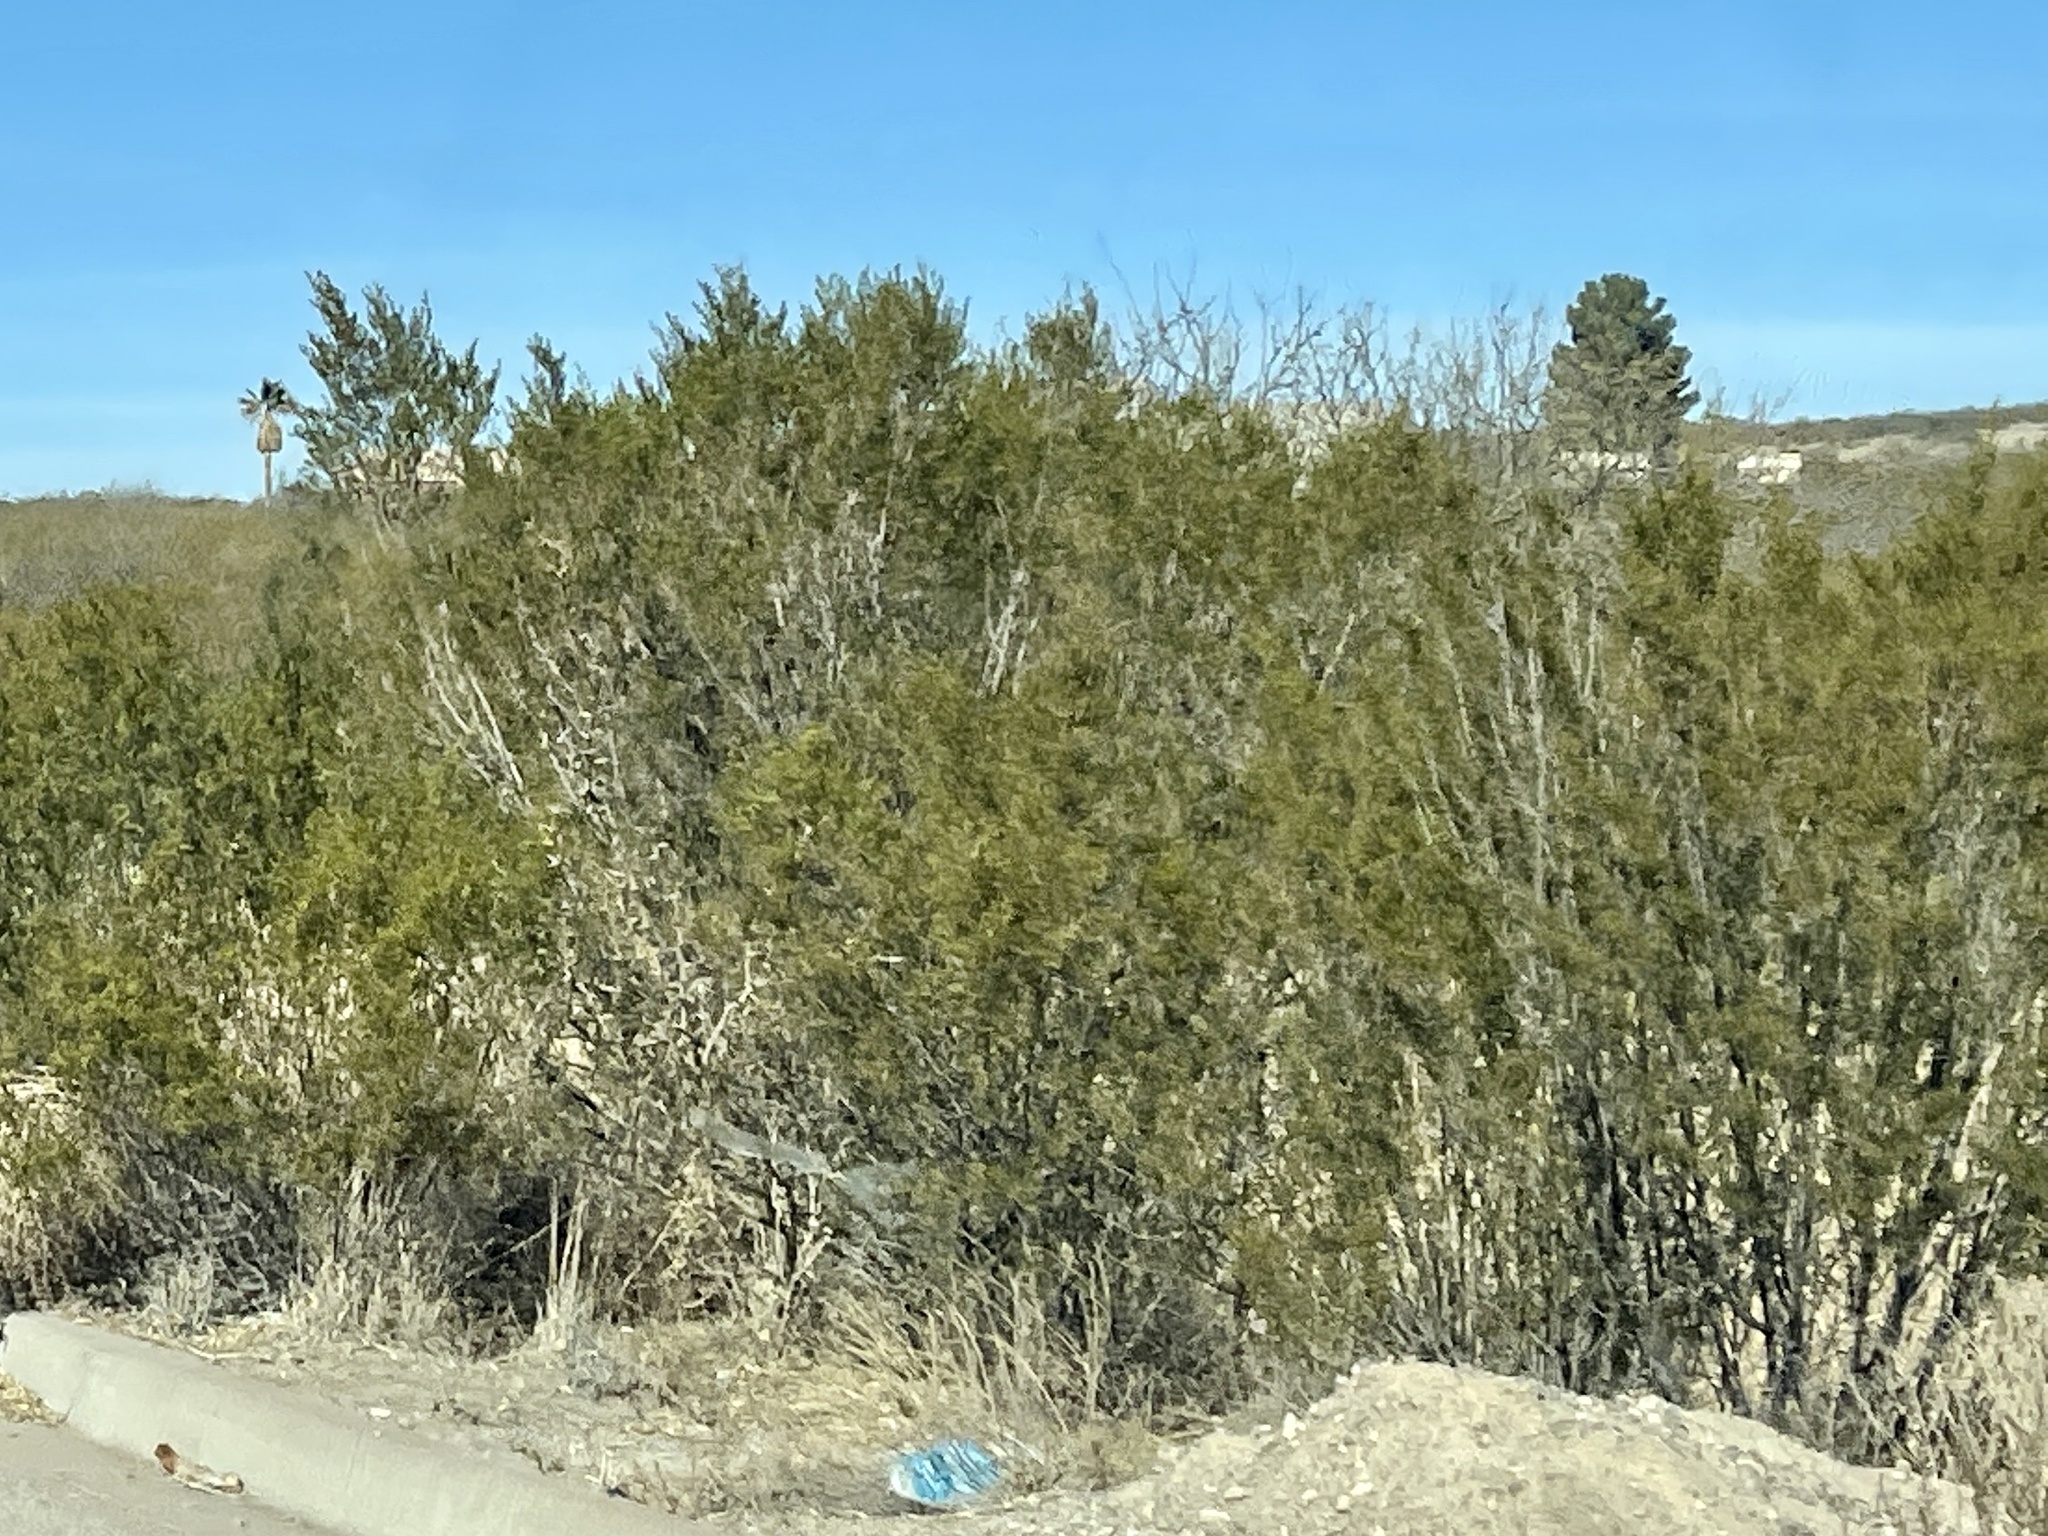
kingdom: Plantae
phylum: Tracheophyta
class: Magnoliopsida
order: Zygophyllales
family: Zygophyllaceae
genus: Larrea
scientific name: Larrea tridentata
